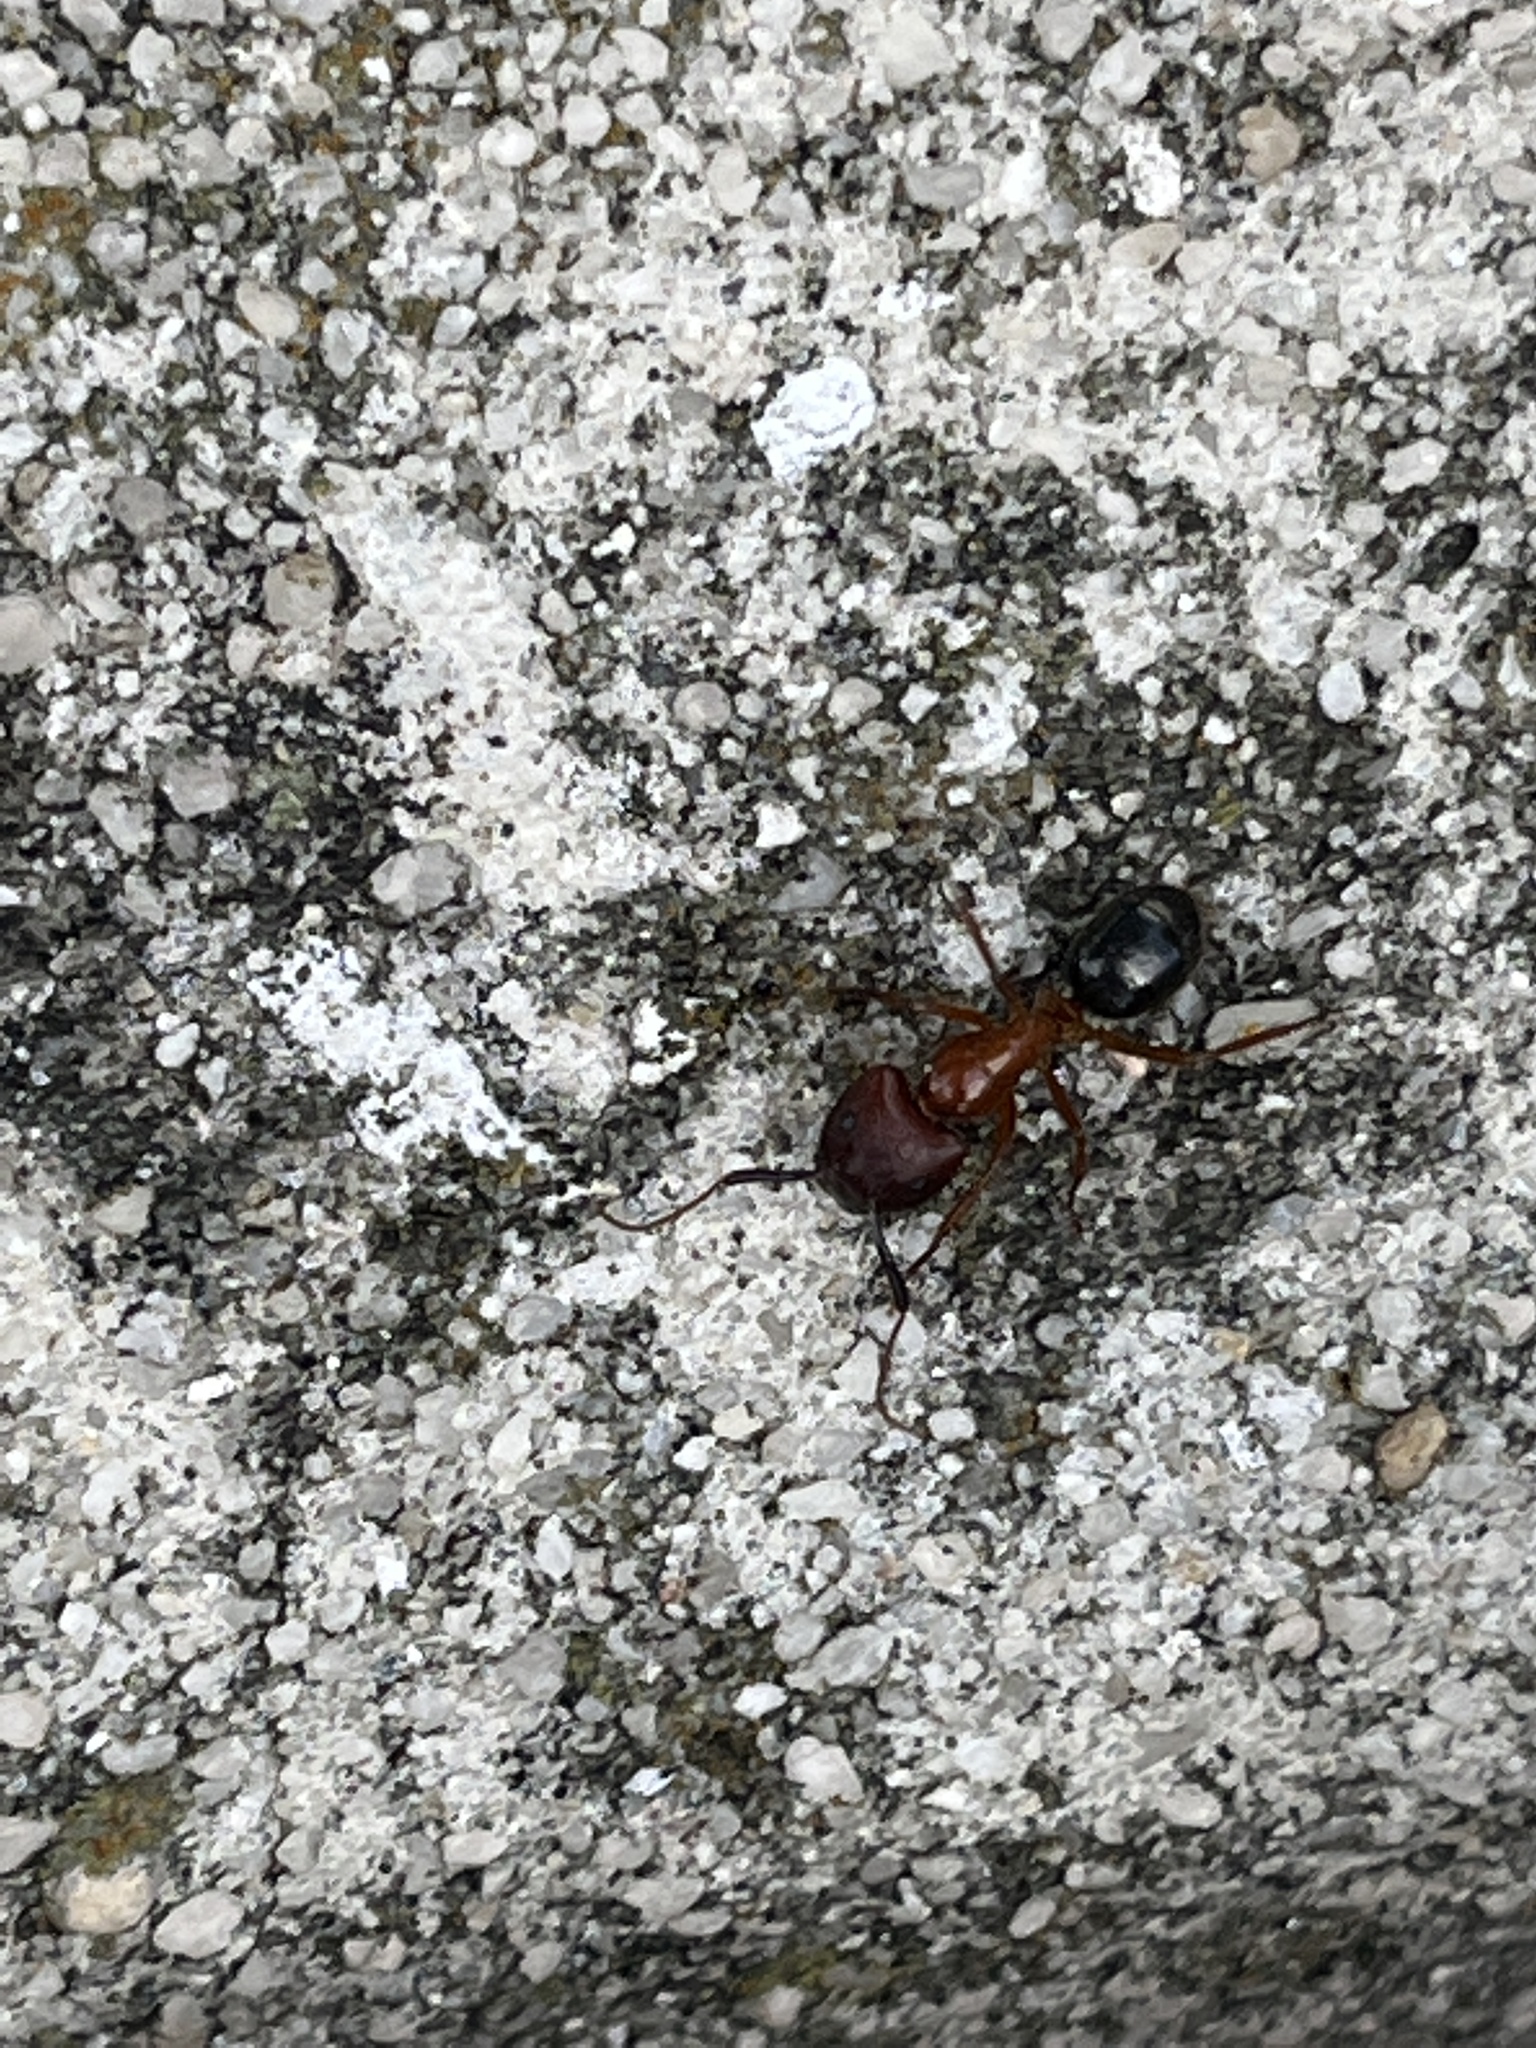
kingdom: Animalia
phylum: Arthropoda
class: Insecta
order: Hymenoptera
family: Formicidae
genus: Camponotus
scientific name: Camponotus floridanus
